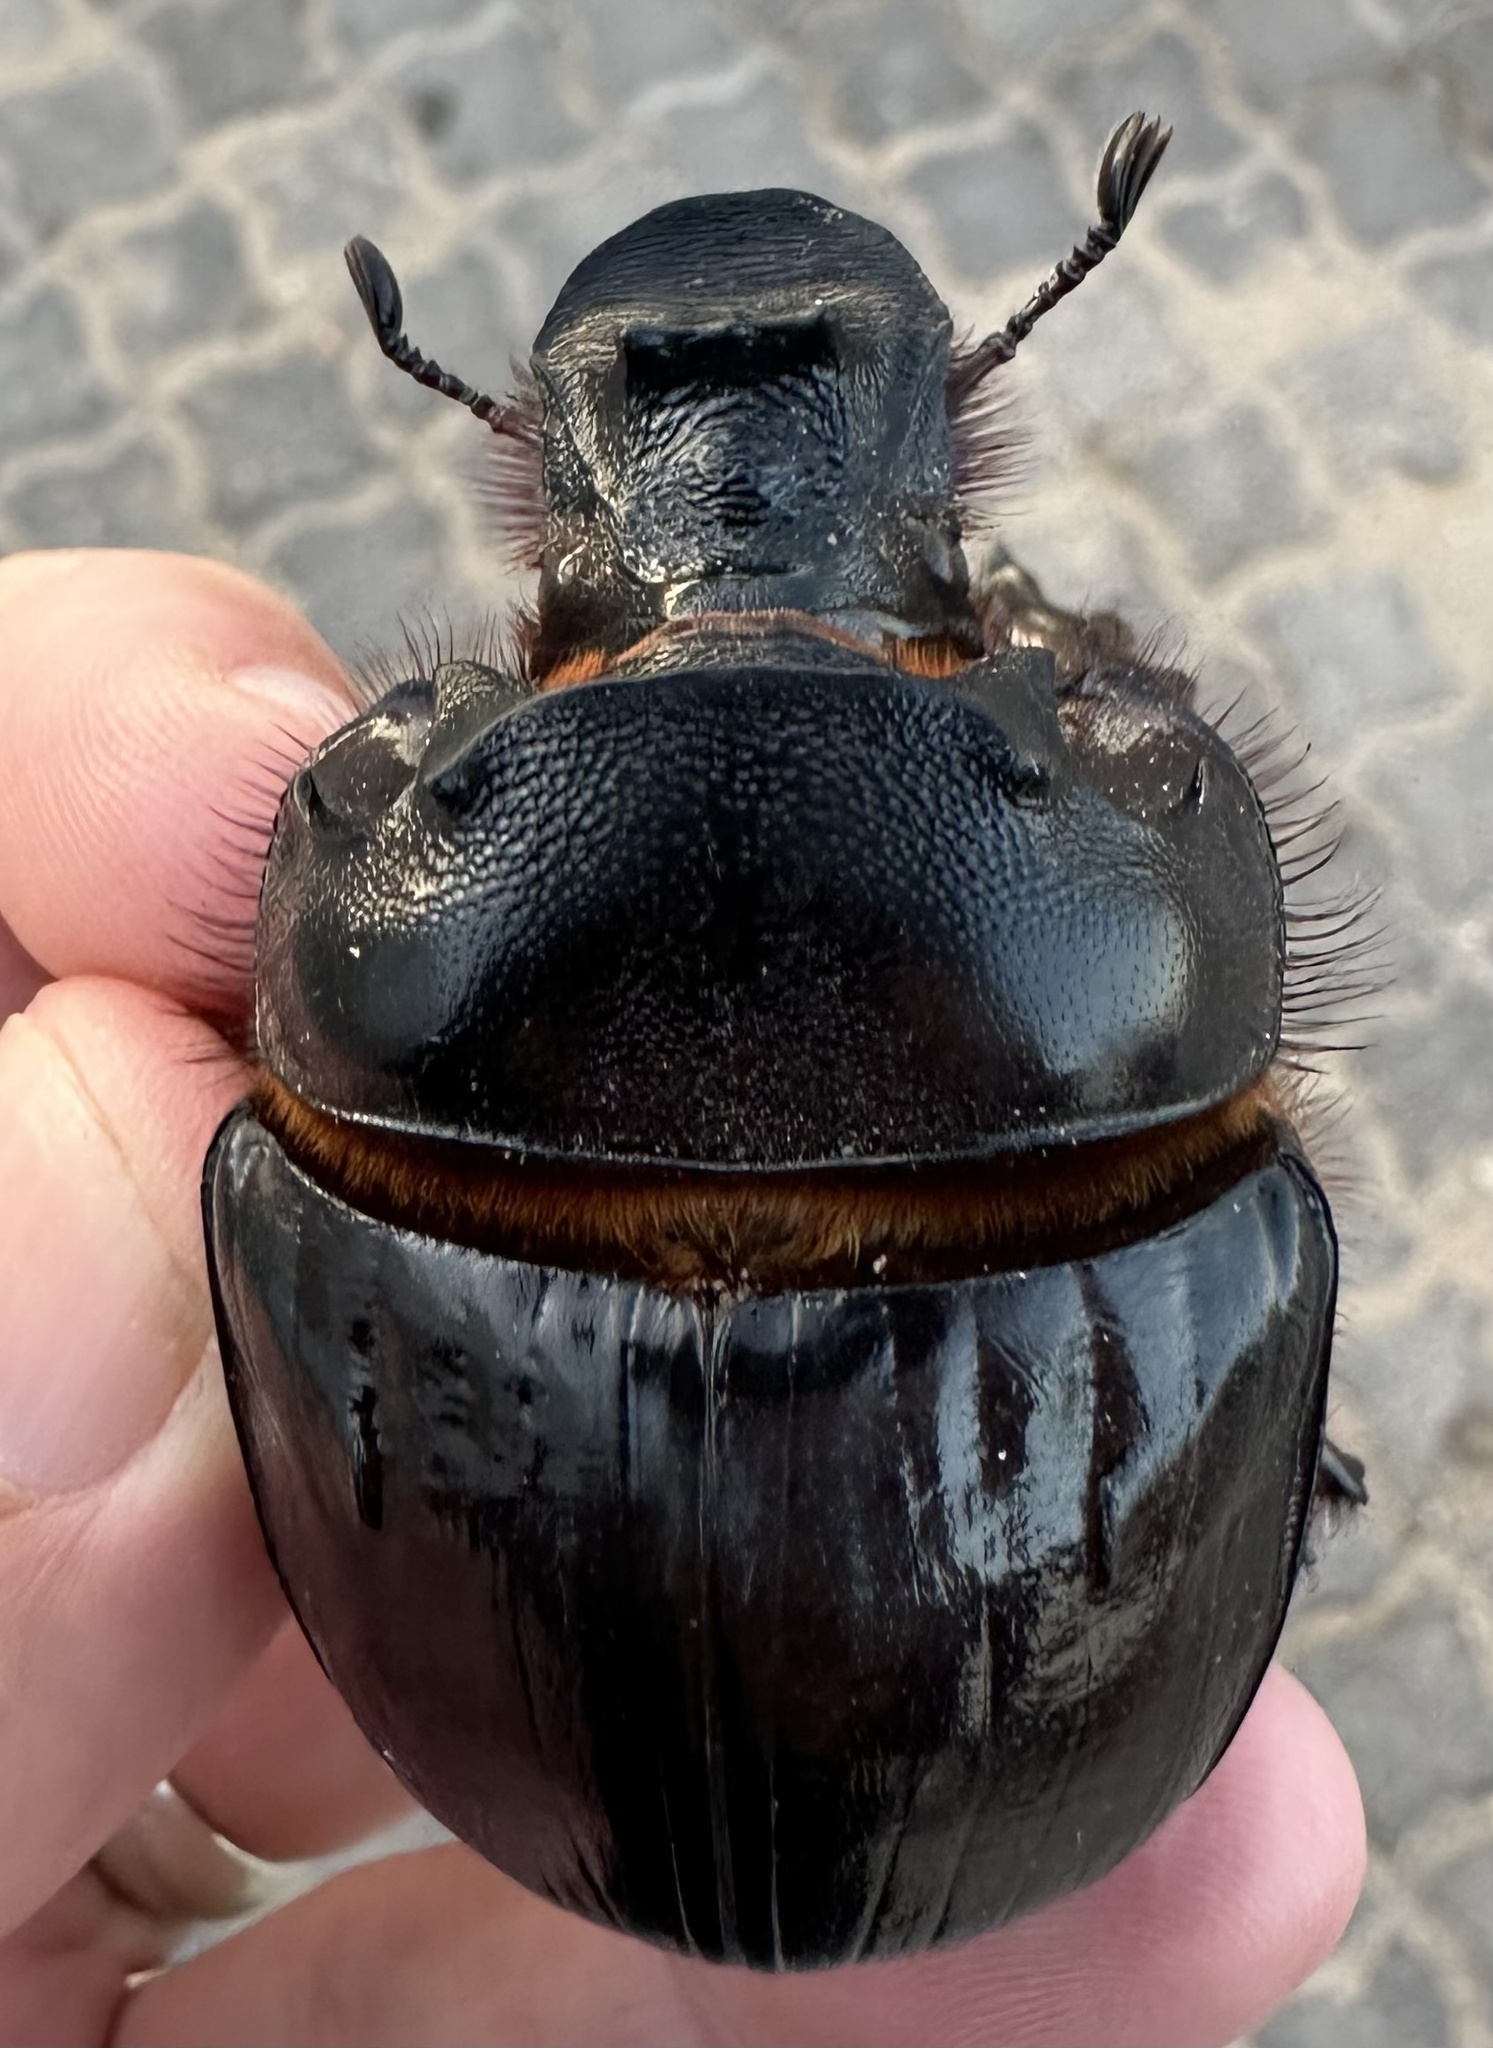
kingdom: Animalia
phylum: Arthropoda
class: Insecta
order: Coleoptera
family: Scarabaeidae
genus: Heliocopris
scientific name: Heliocopris japetus
